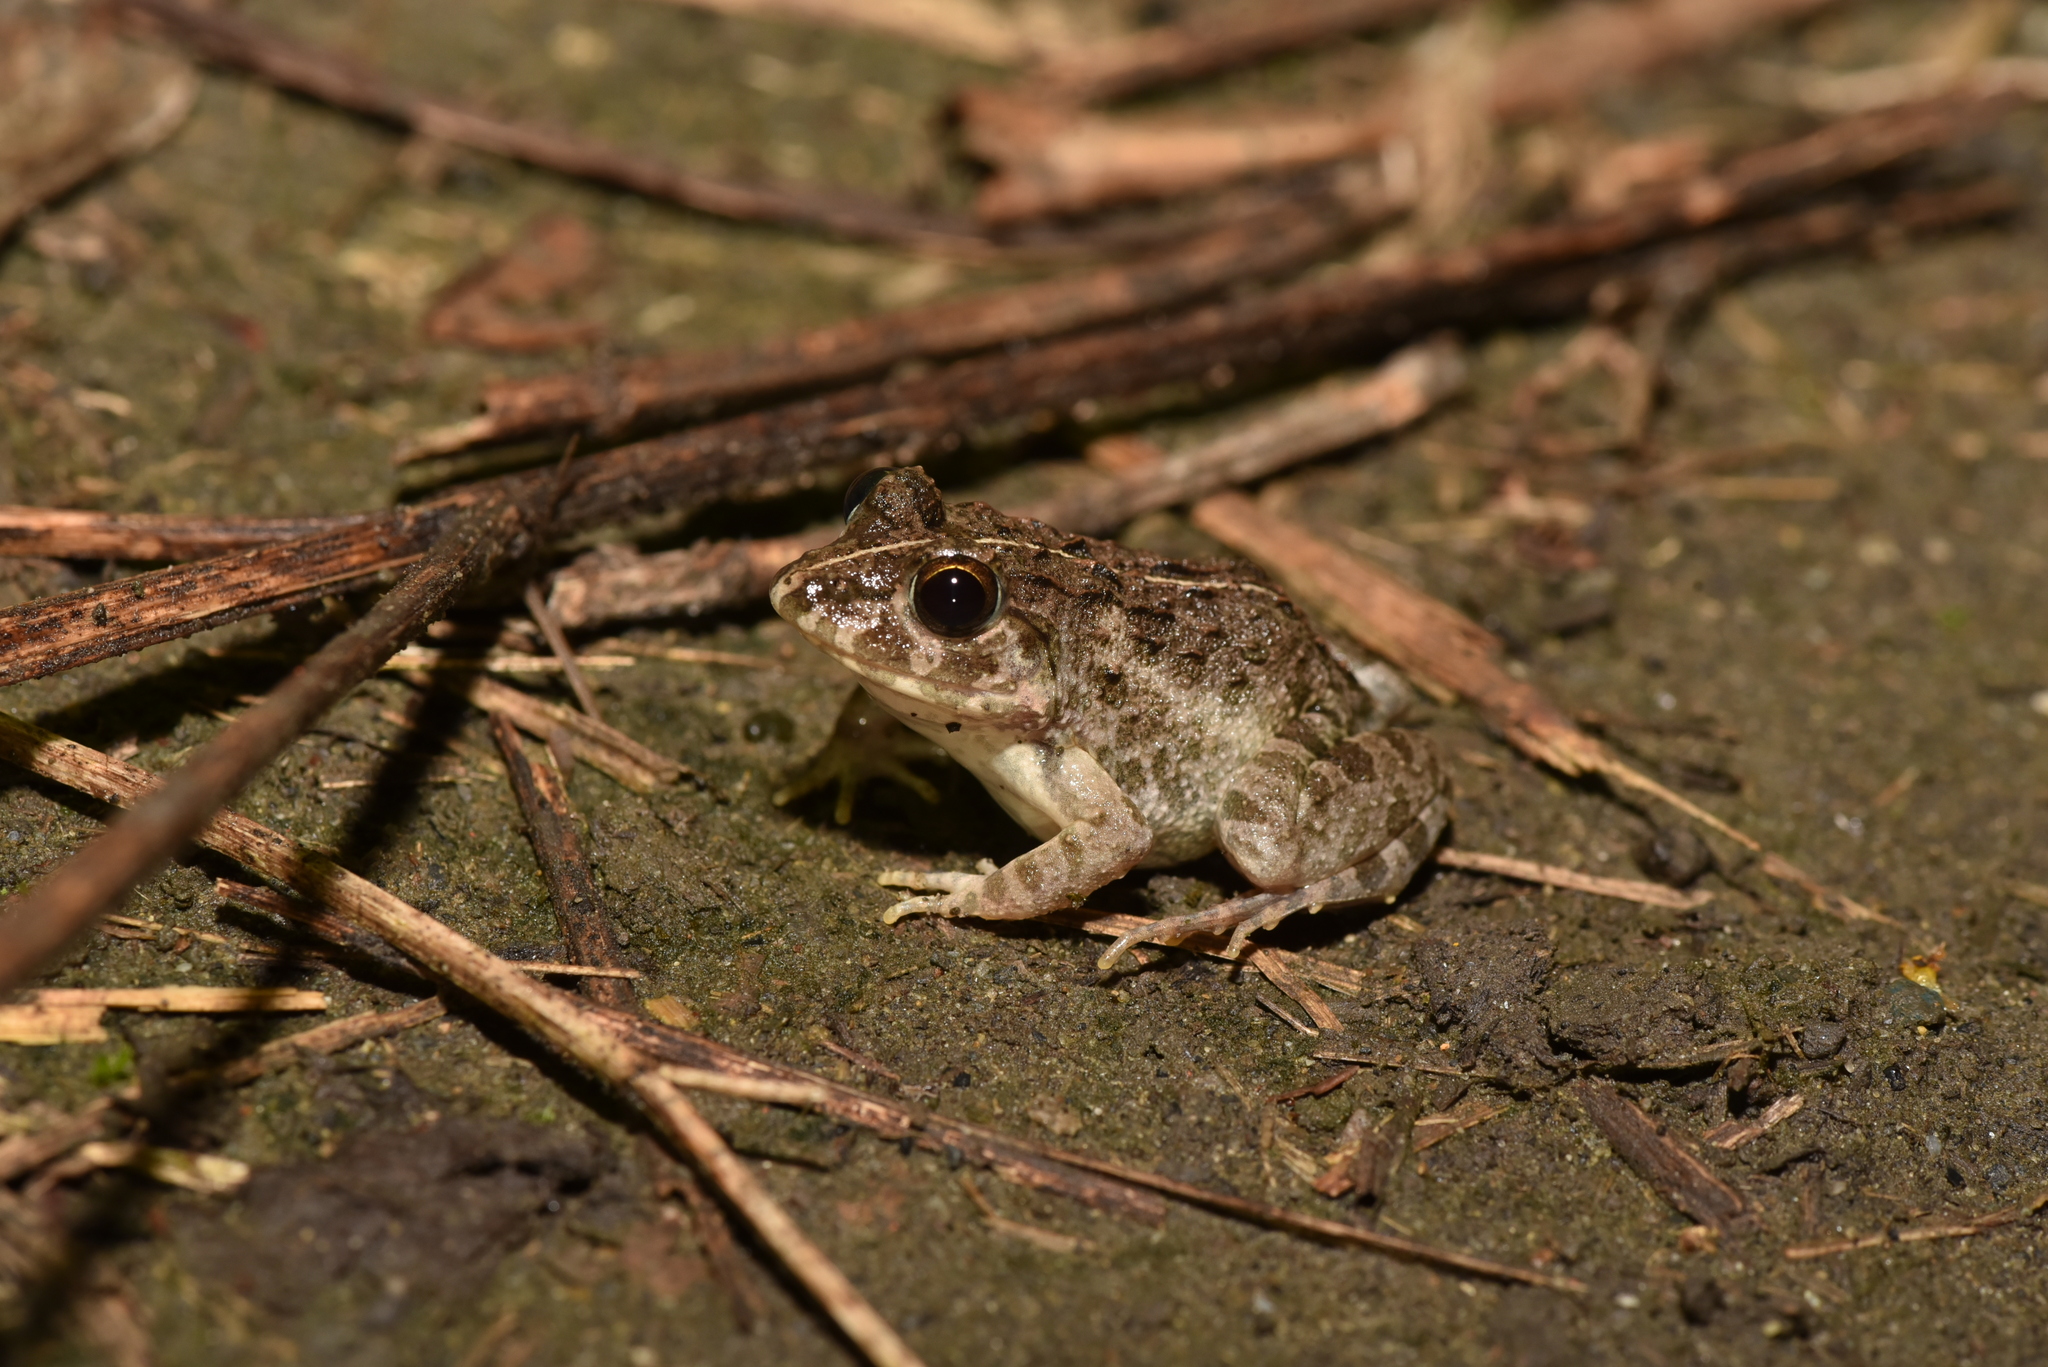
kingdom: Animalia
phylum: Chordata
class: Amphibia
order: Anura
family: Dicroglossidae
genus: Fejervarya
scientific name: Fejervarya limnocharis
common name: Asian grass frog/common pond frog/field frog/grass frog/indian rice frog
